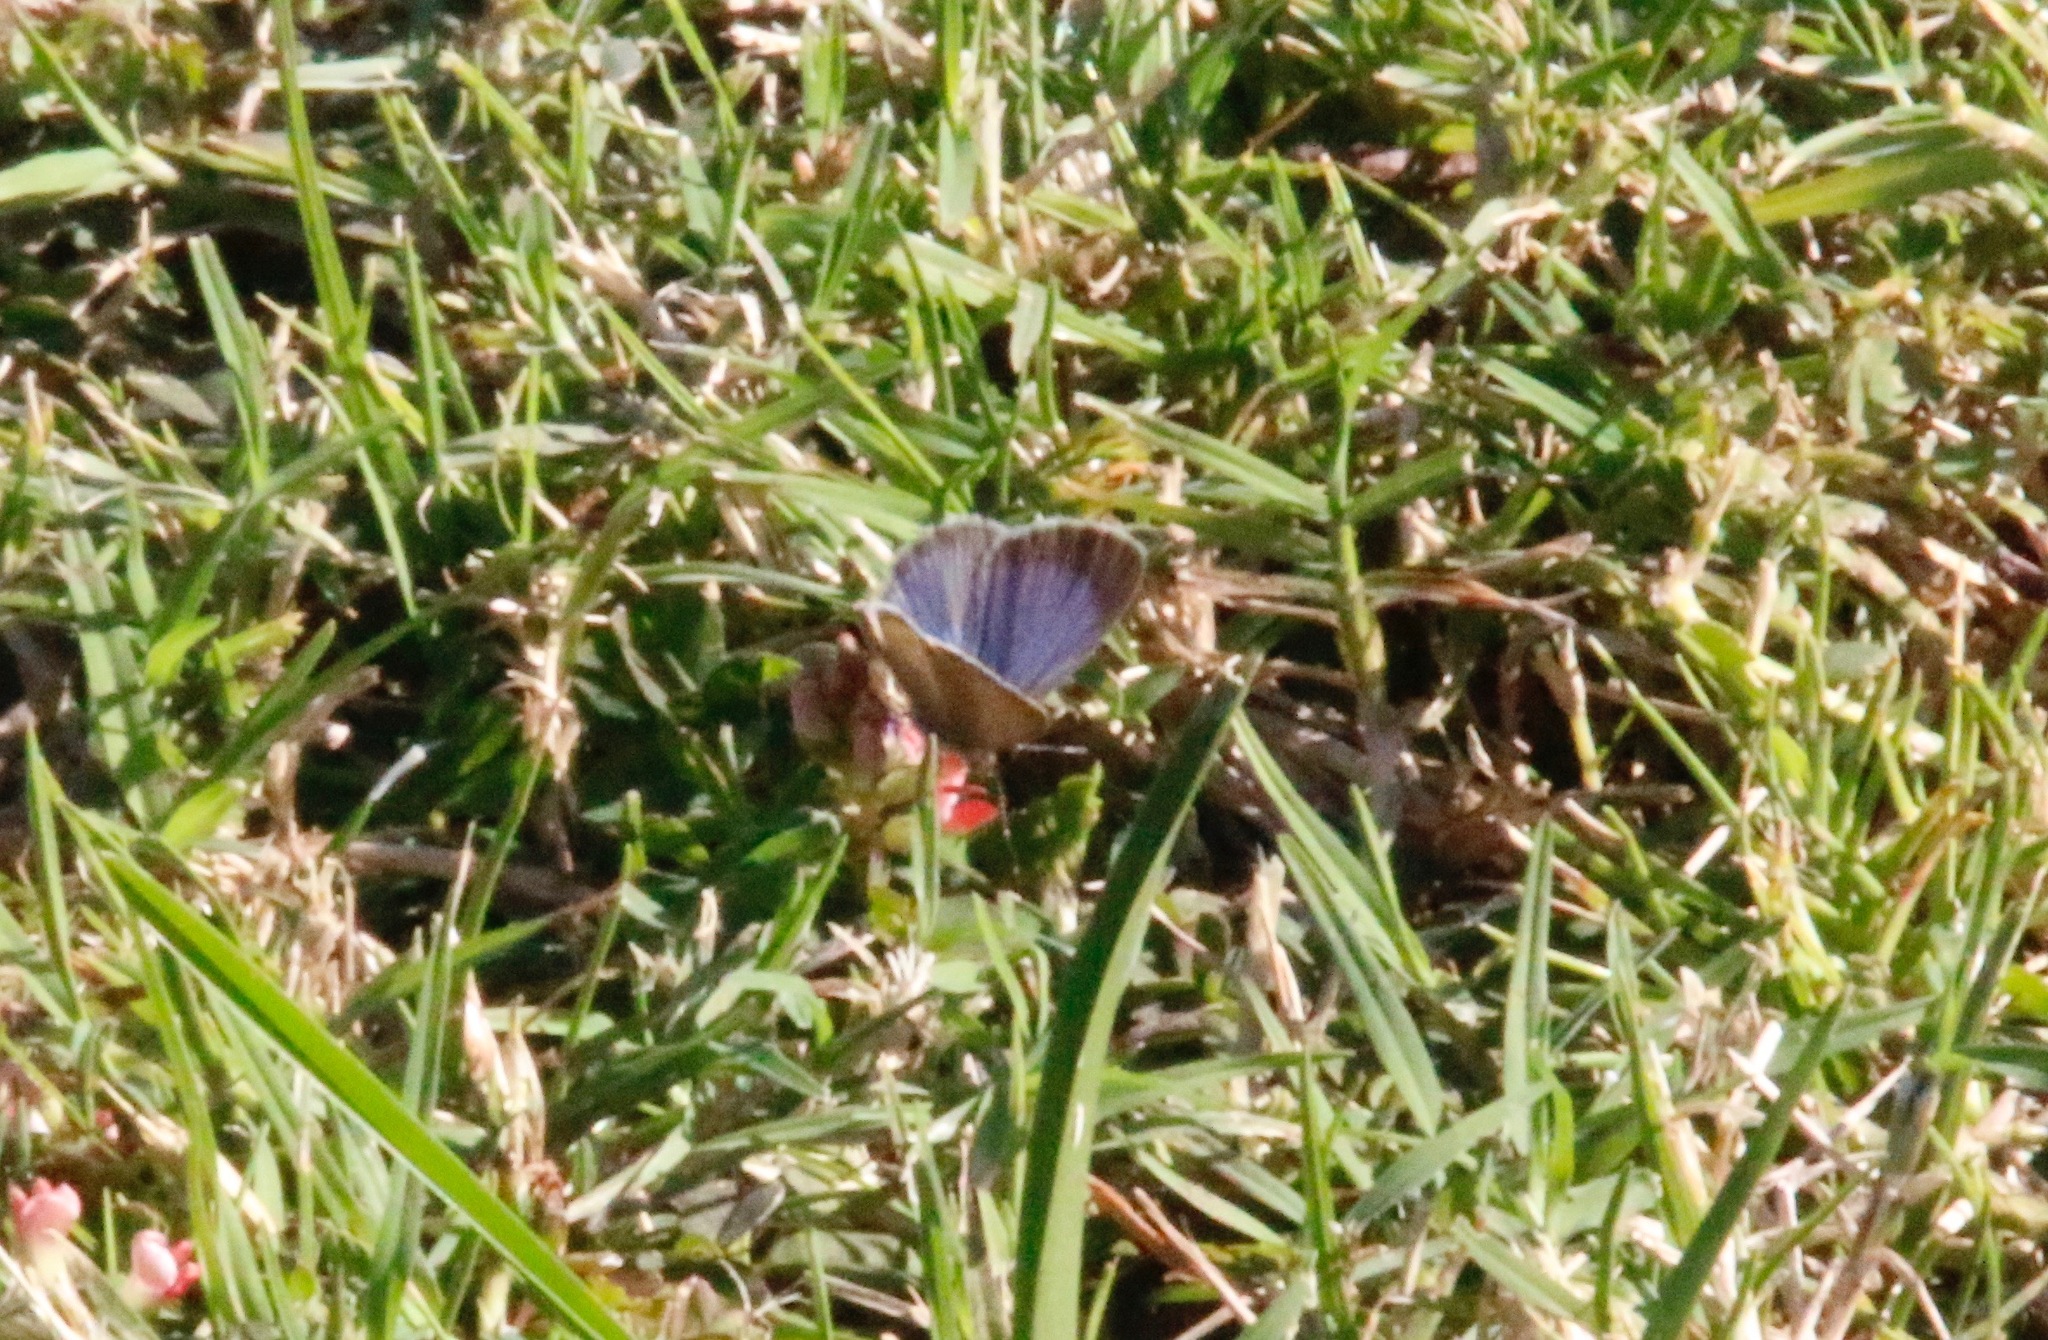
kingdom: Animalia
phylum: Arthropoda
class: Insecta
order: Lepidoptera
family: Lycaenidae
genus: Zizina
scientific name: Zizina otis
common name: Lesser grass blue
